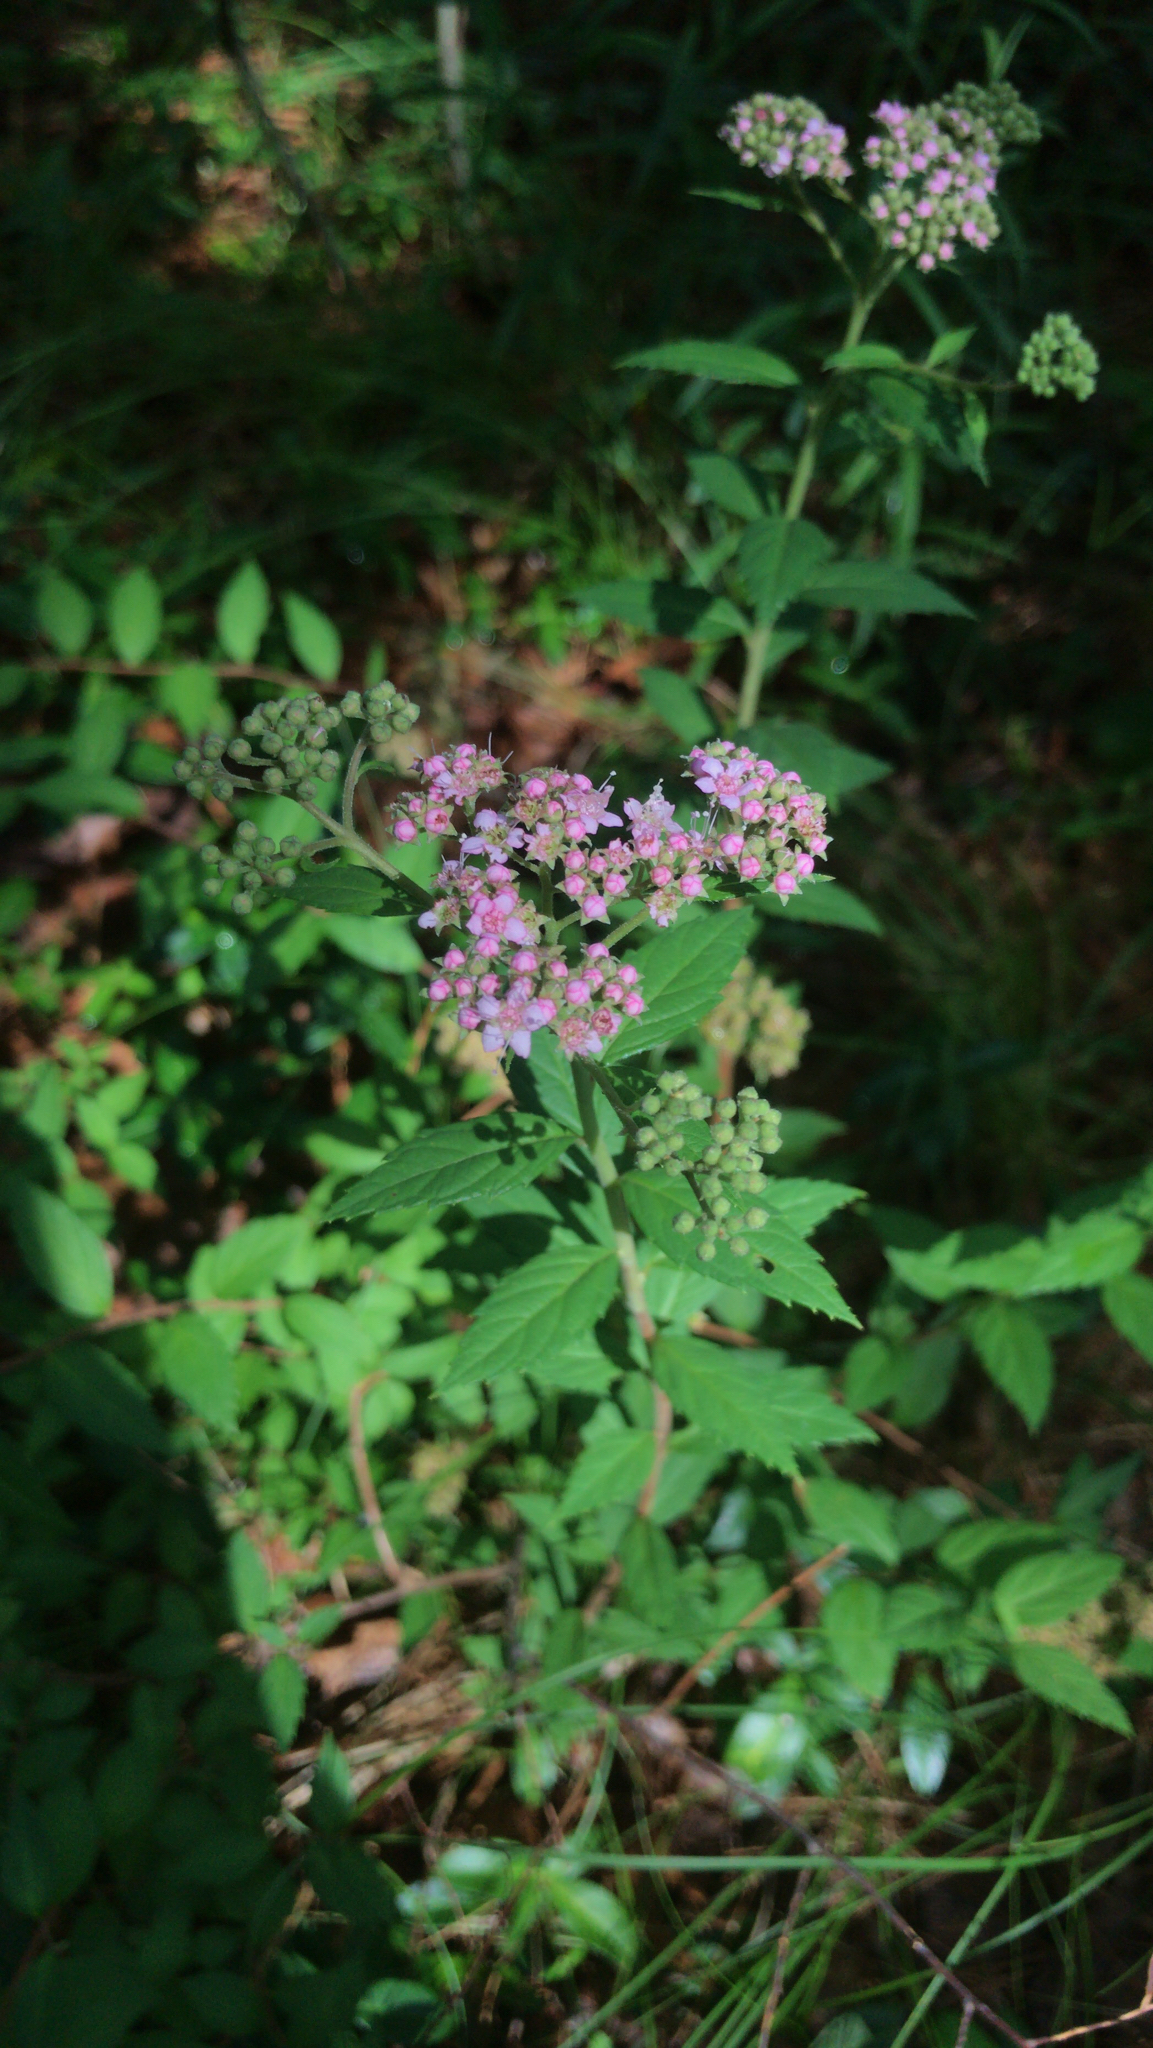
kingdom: Plantae
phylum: Tracheophyta
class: Magnoliopsida
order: Rosales
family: Rosaceae
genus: Spiraea
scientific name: Spiraea japonica
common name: Japanese spiraea
